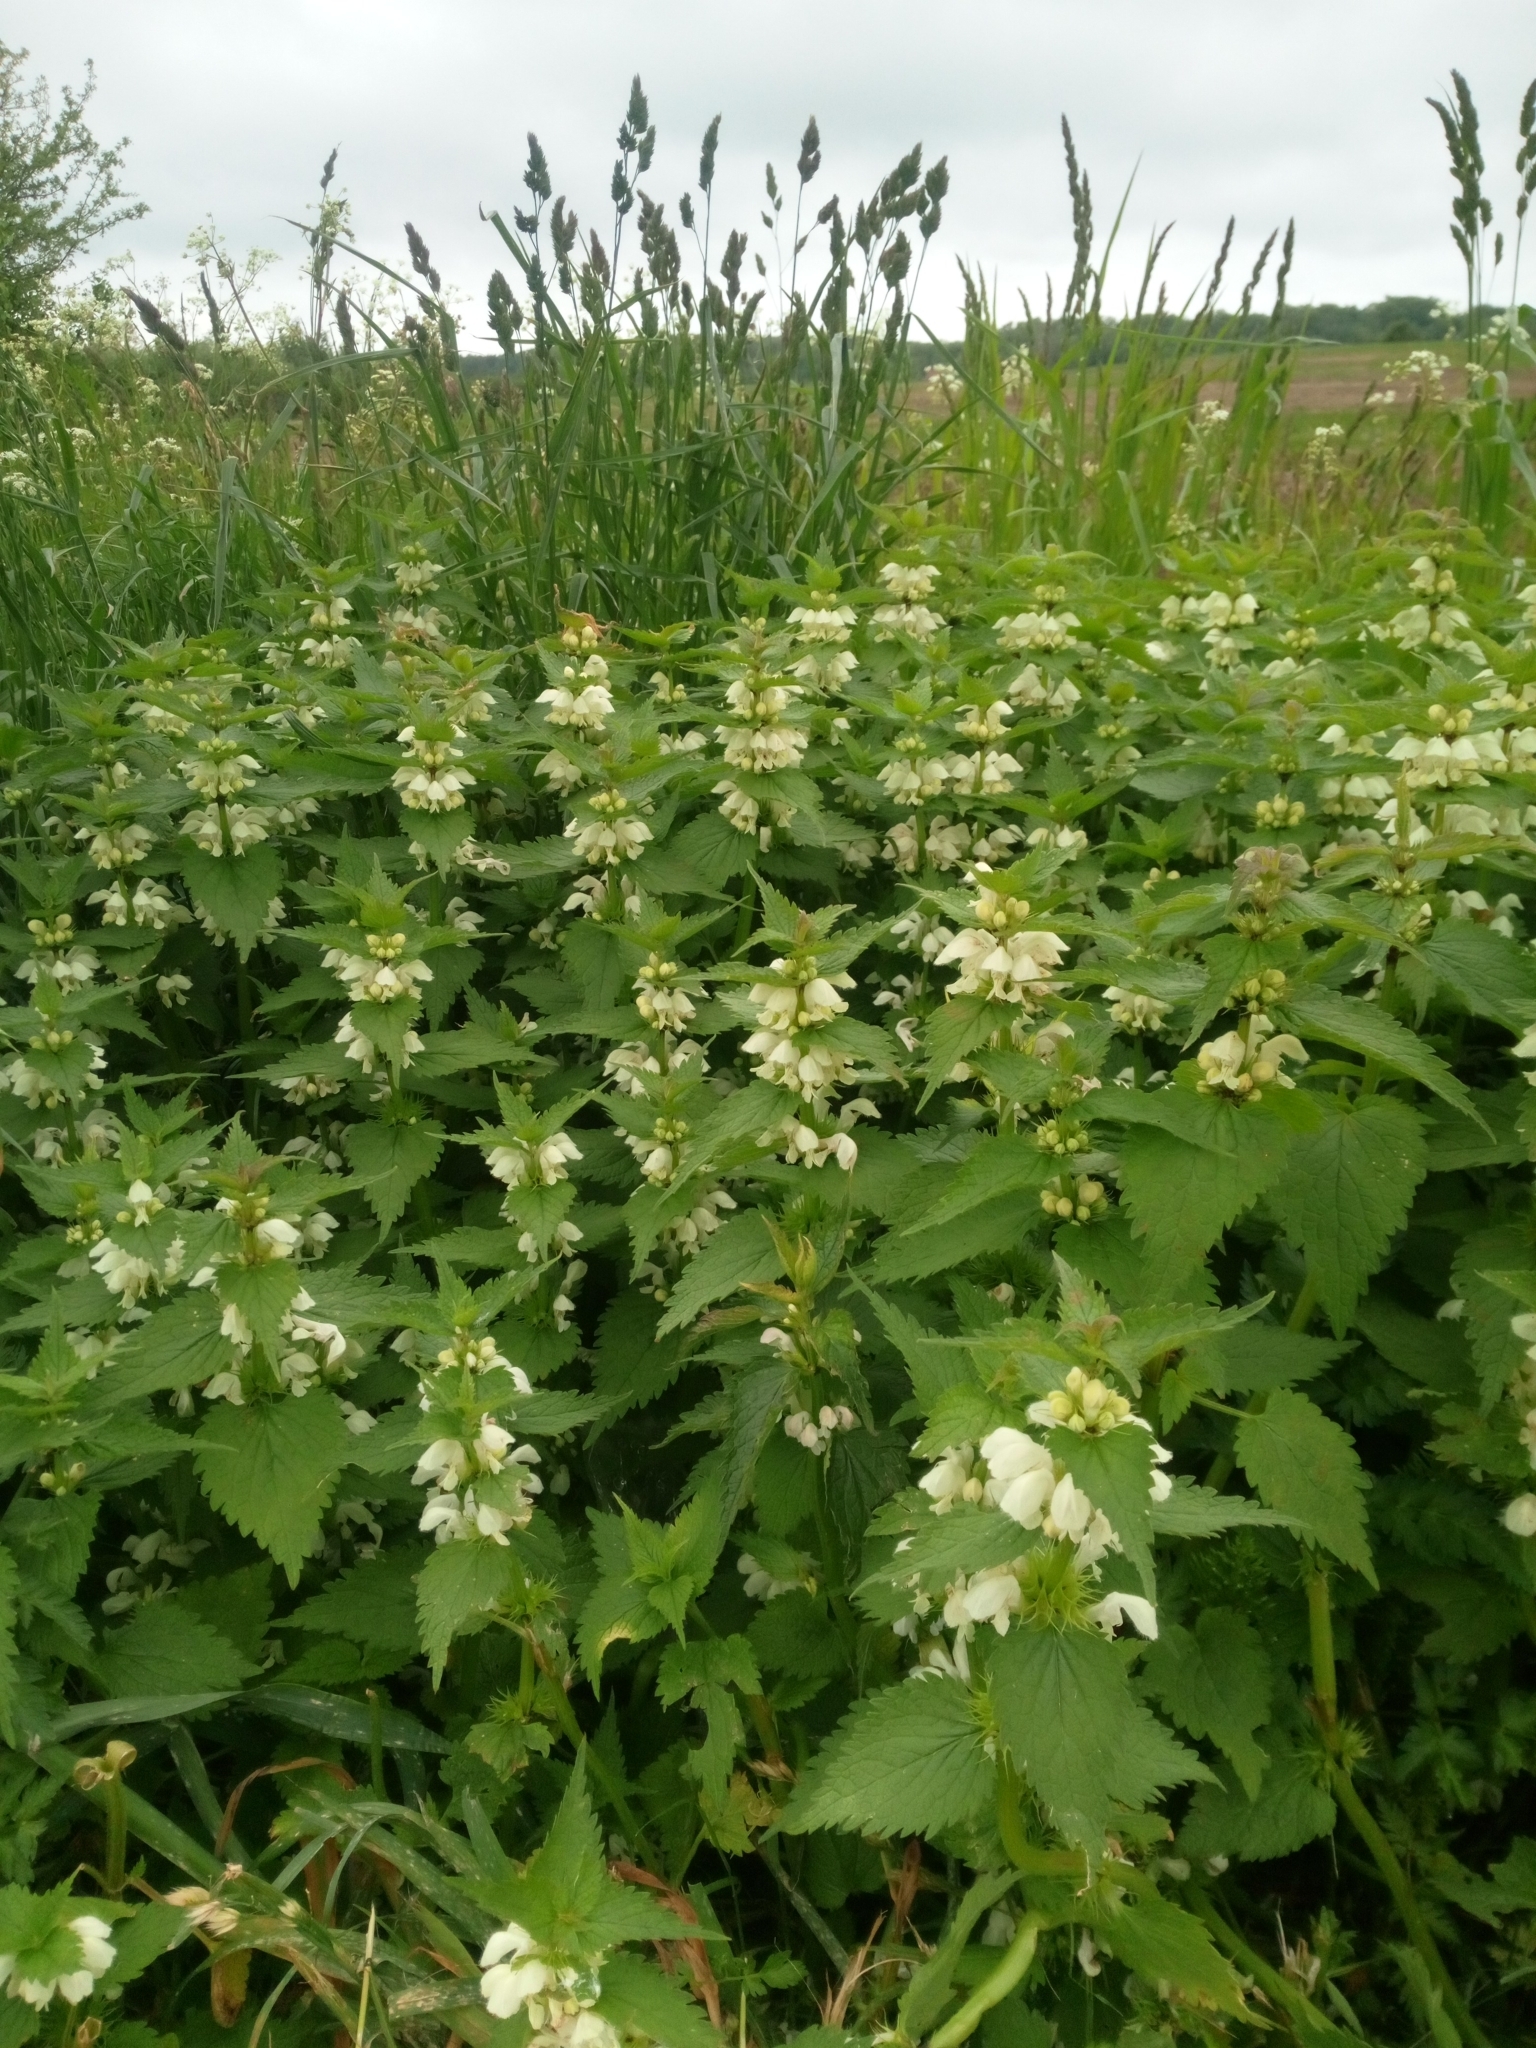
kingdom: Plantae
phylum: Tracheophyta
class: Magnoliopsida
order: Lamiales
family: Lamiaceae
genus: Lamium
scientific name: Lamium album
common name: White dead-nettle
